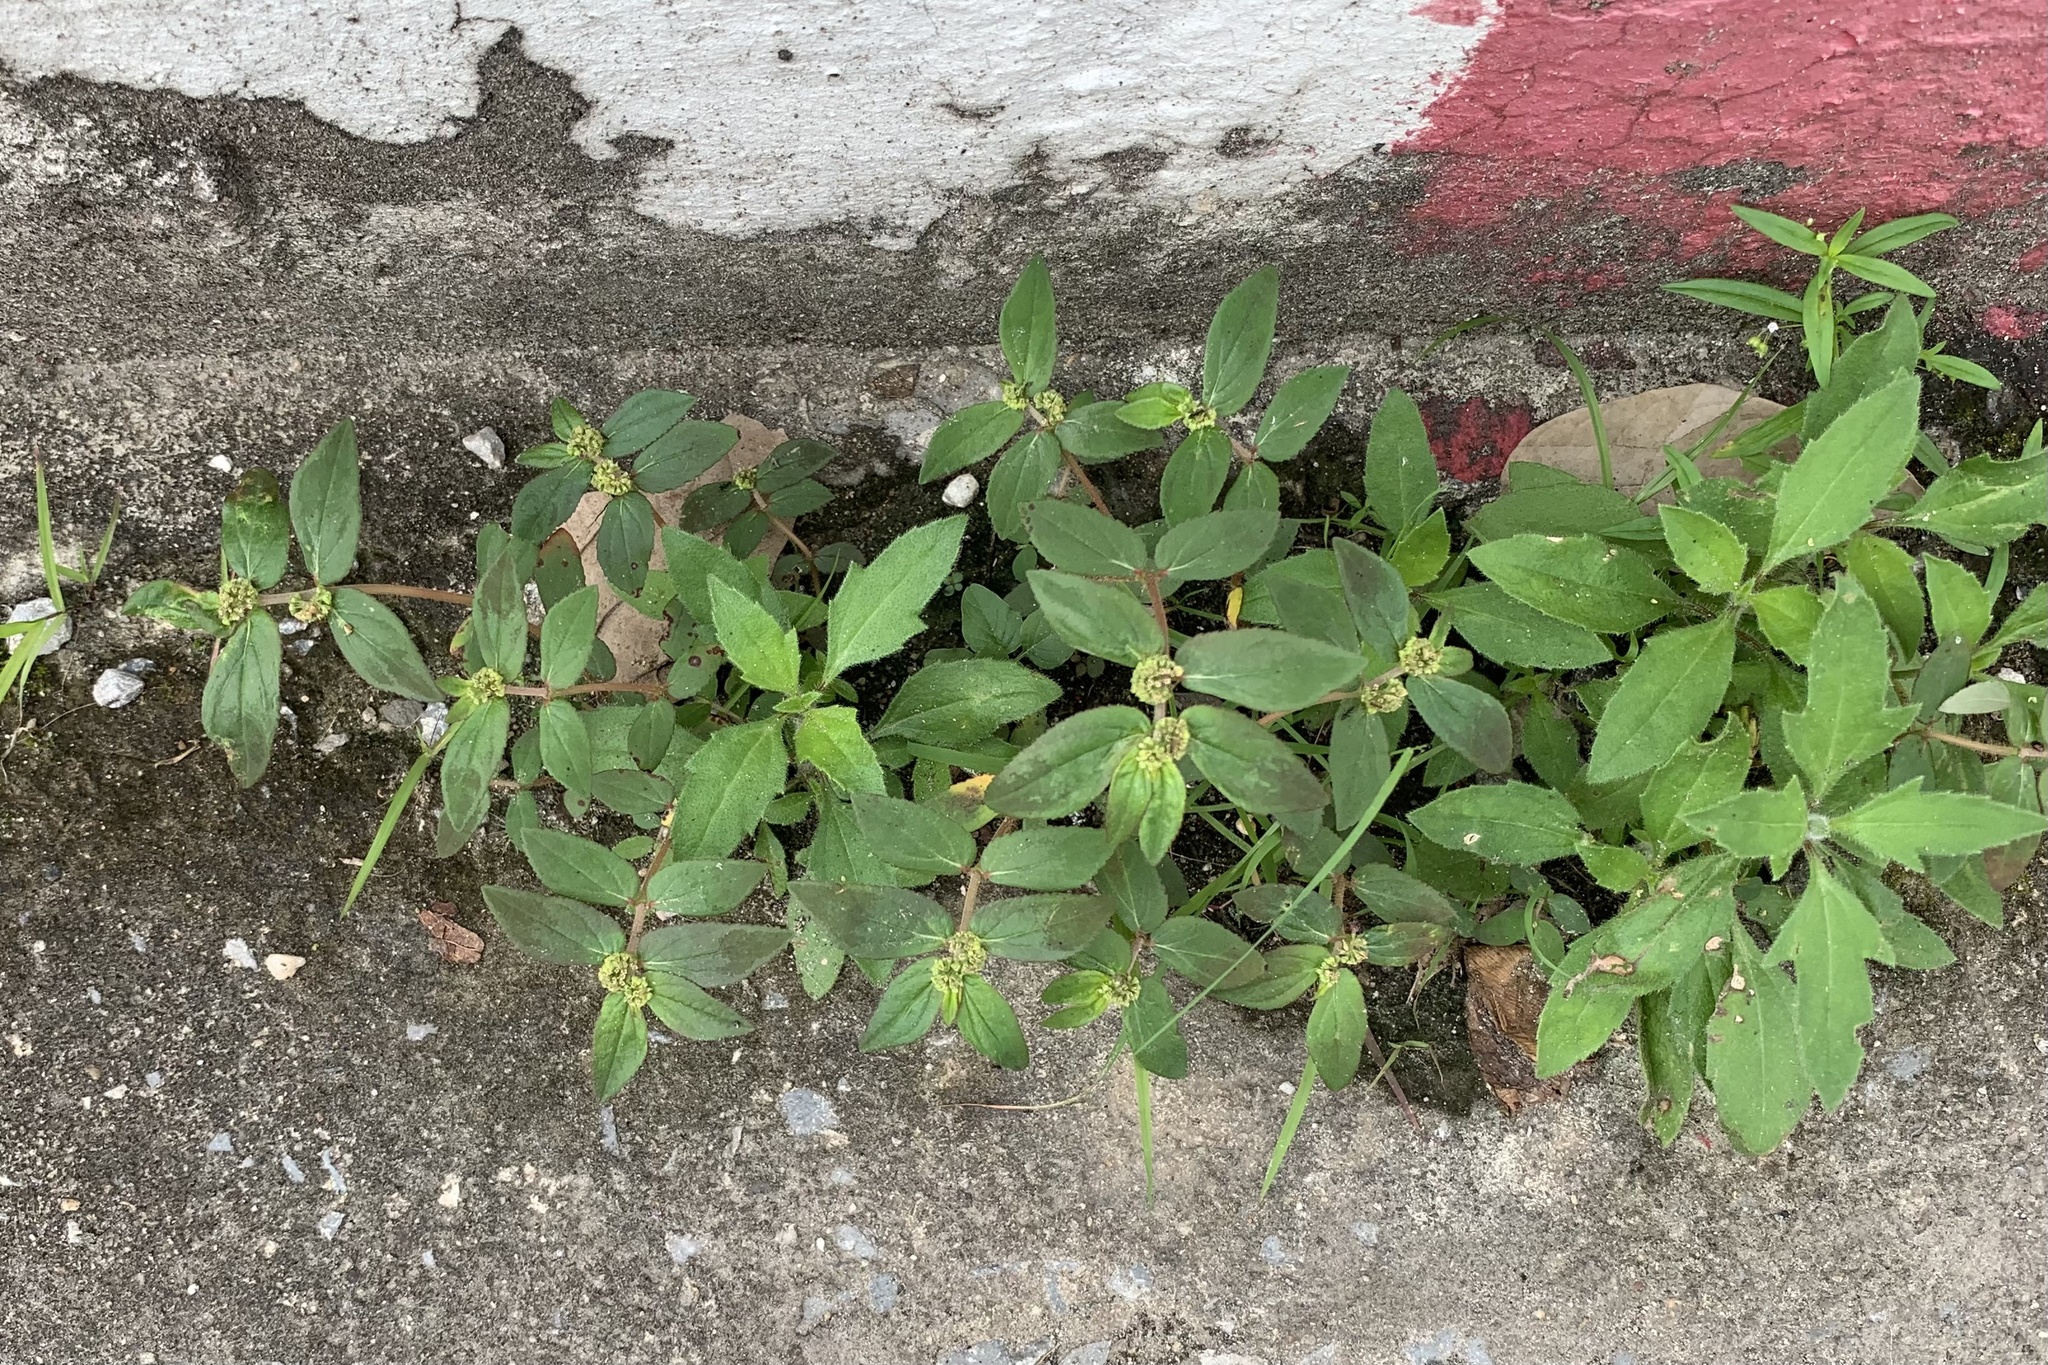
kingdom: Plantae
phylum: Tracheophyta
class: Magnoliopsida
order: Malpighiales
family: Euphorbiaceae
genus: Euphorbia
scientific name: Euphorbia hirta
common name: Pillpod sandmat
